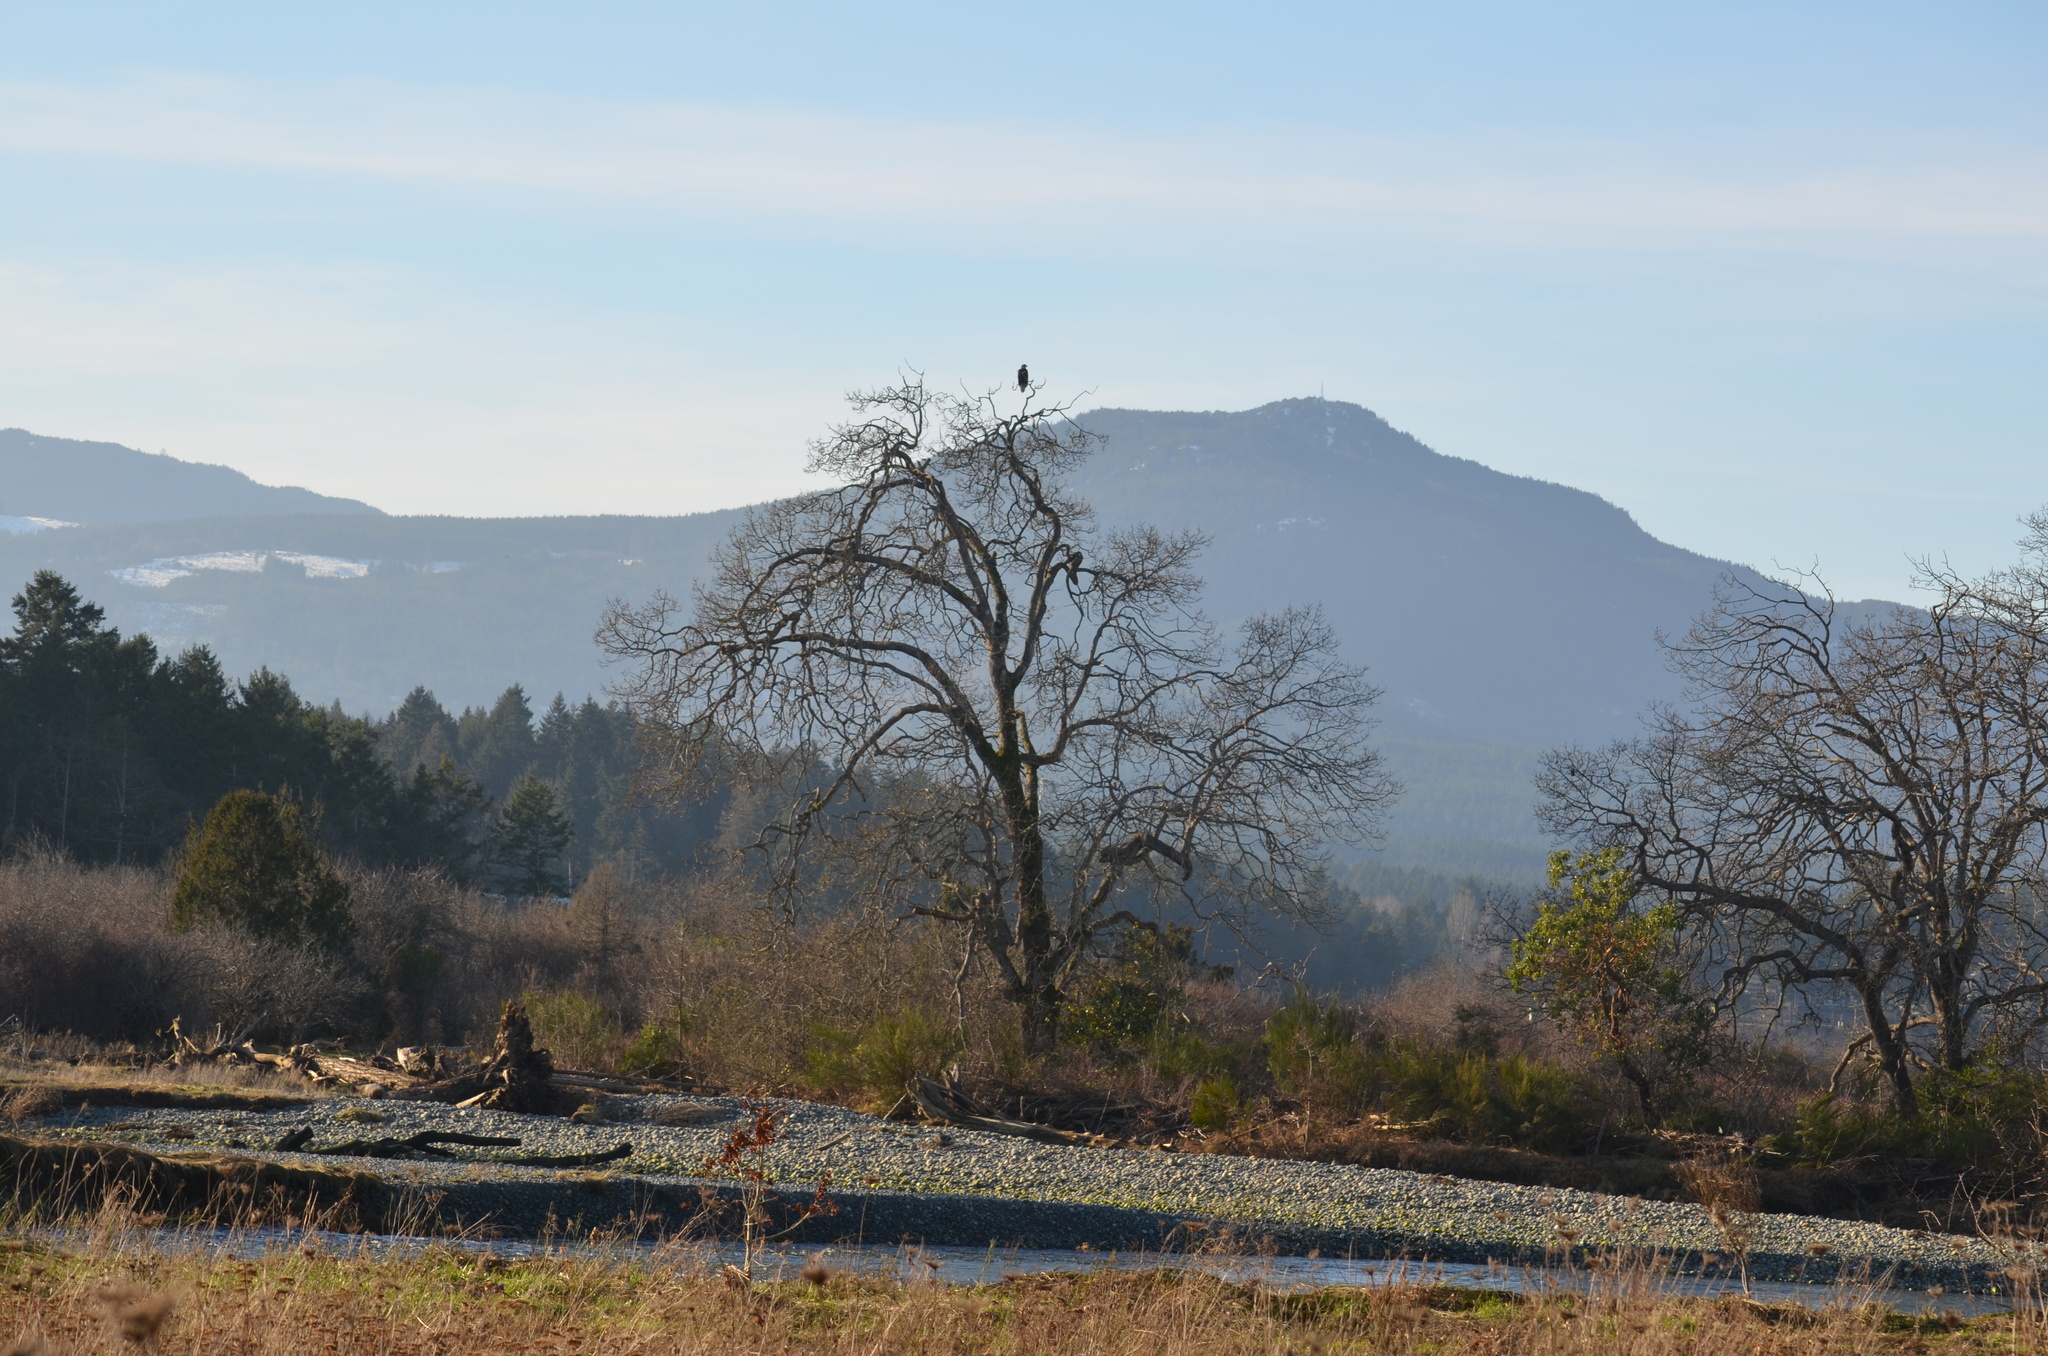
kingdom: Animalia
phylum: Chordata
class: Aves
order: Accipitriformes
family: Accipitridae
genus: Haliaeetus
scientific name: Haliaeetus leucocephalus
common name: Bald eagle
